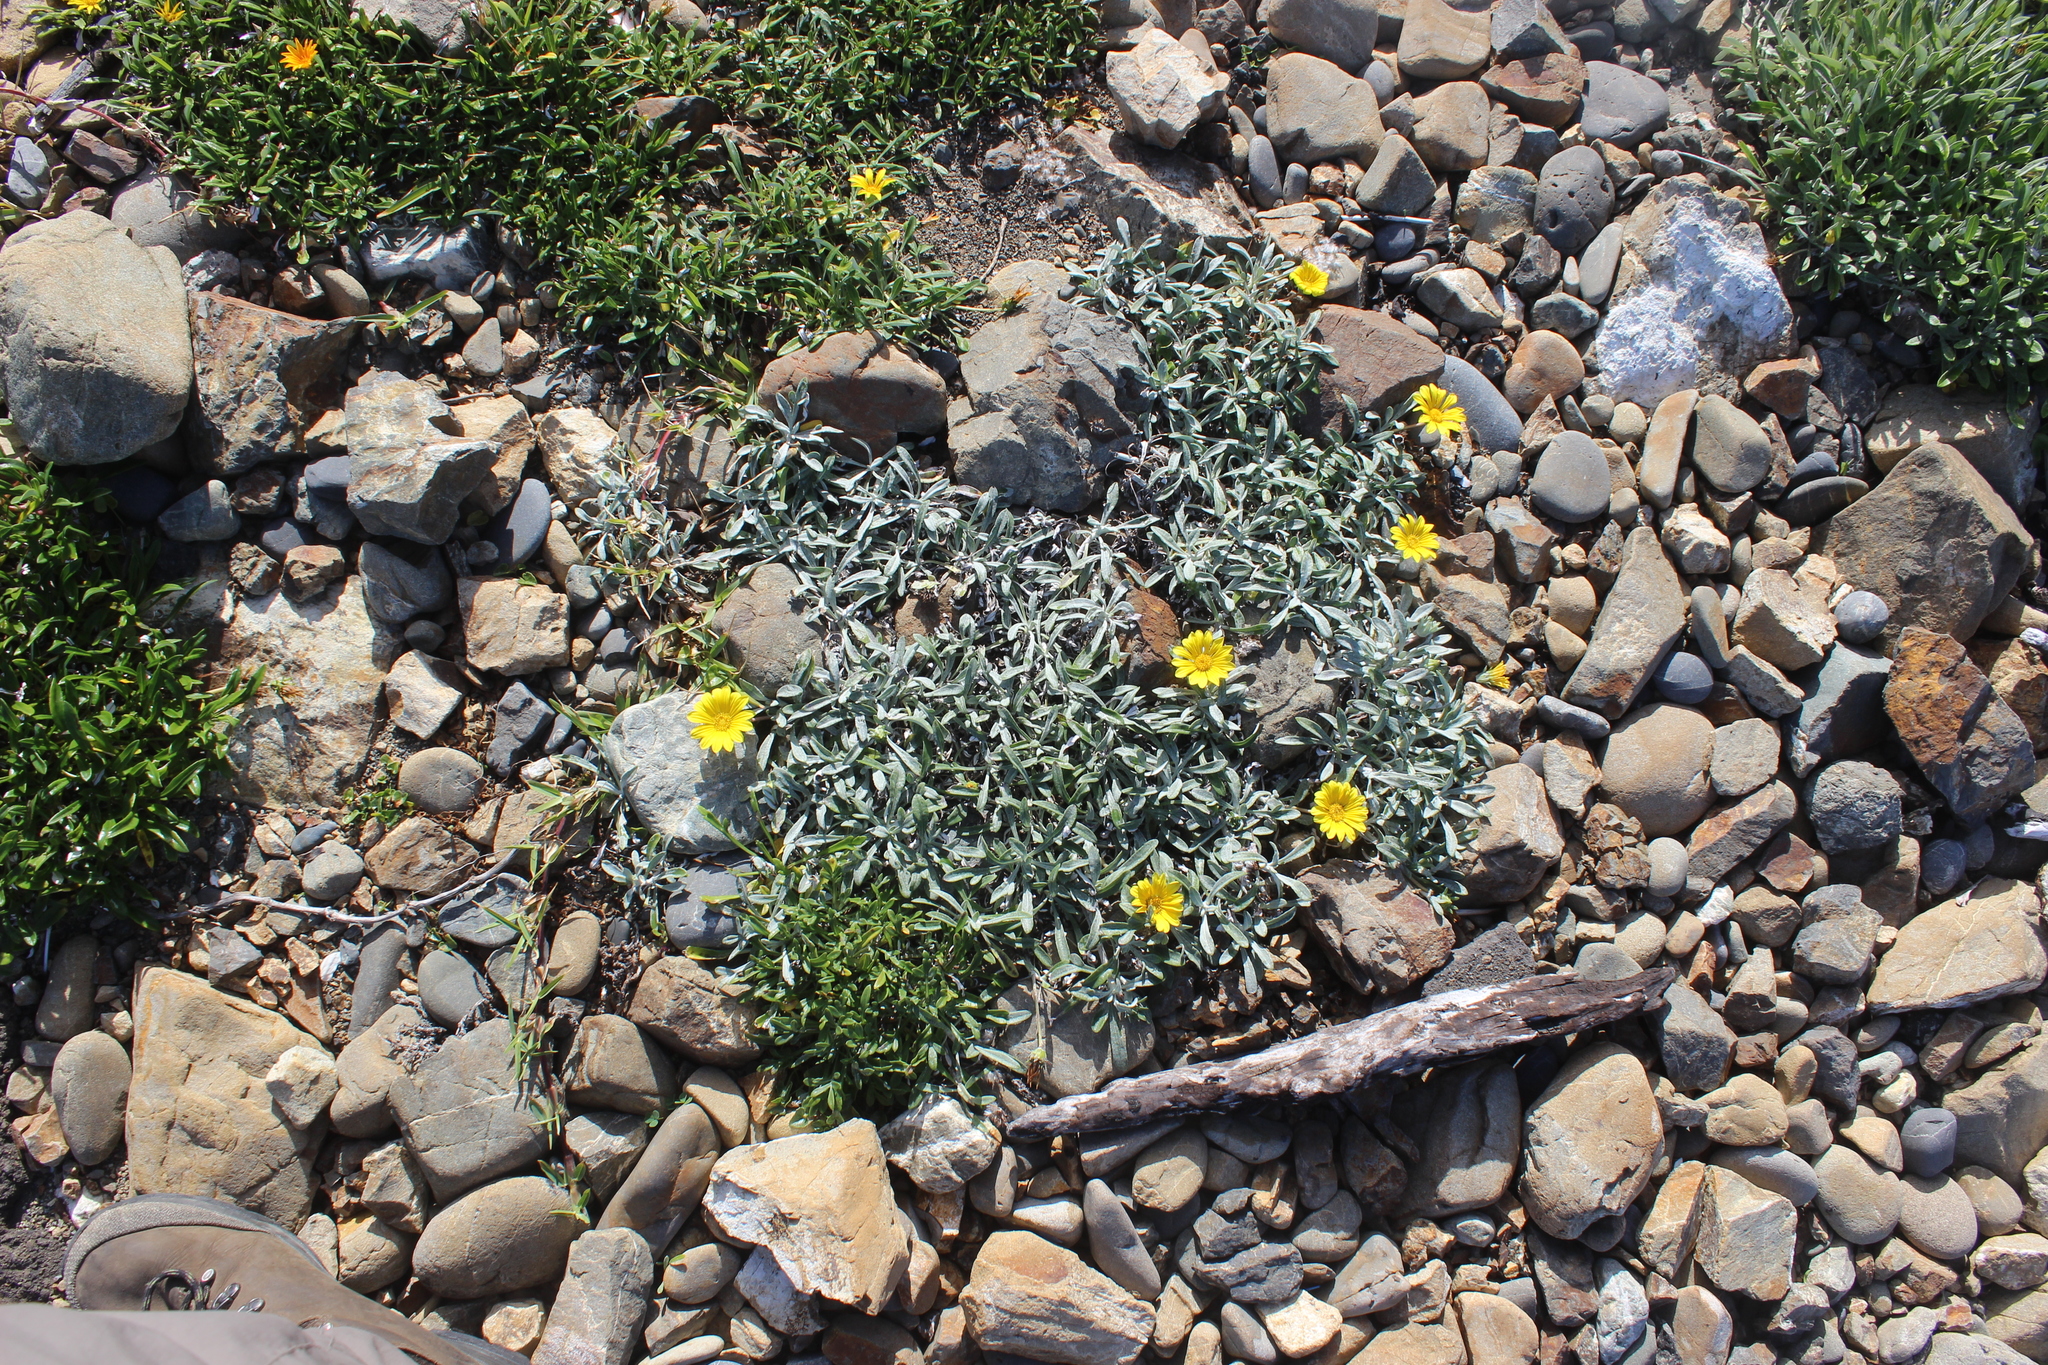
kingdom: Plantae
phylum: Tracheophyta
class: Magnoliopsida
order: Asterales
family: Asteraceae
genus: Gazania
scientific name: Gazania splendens
